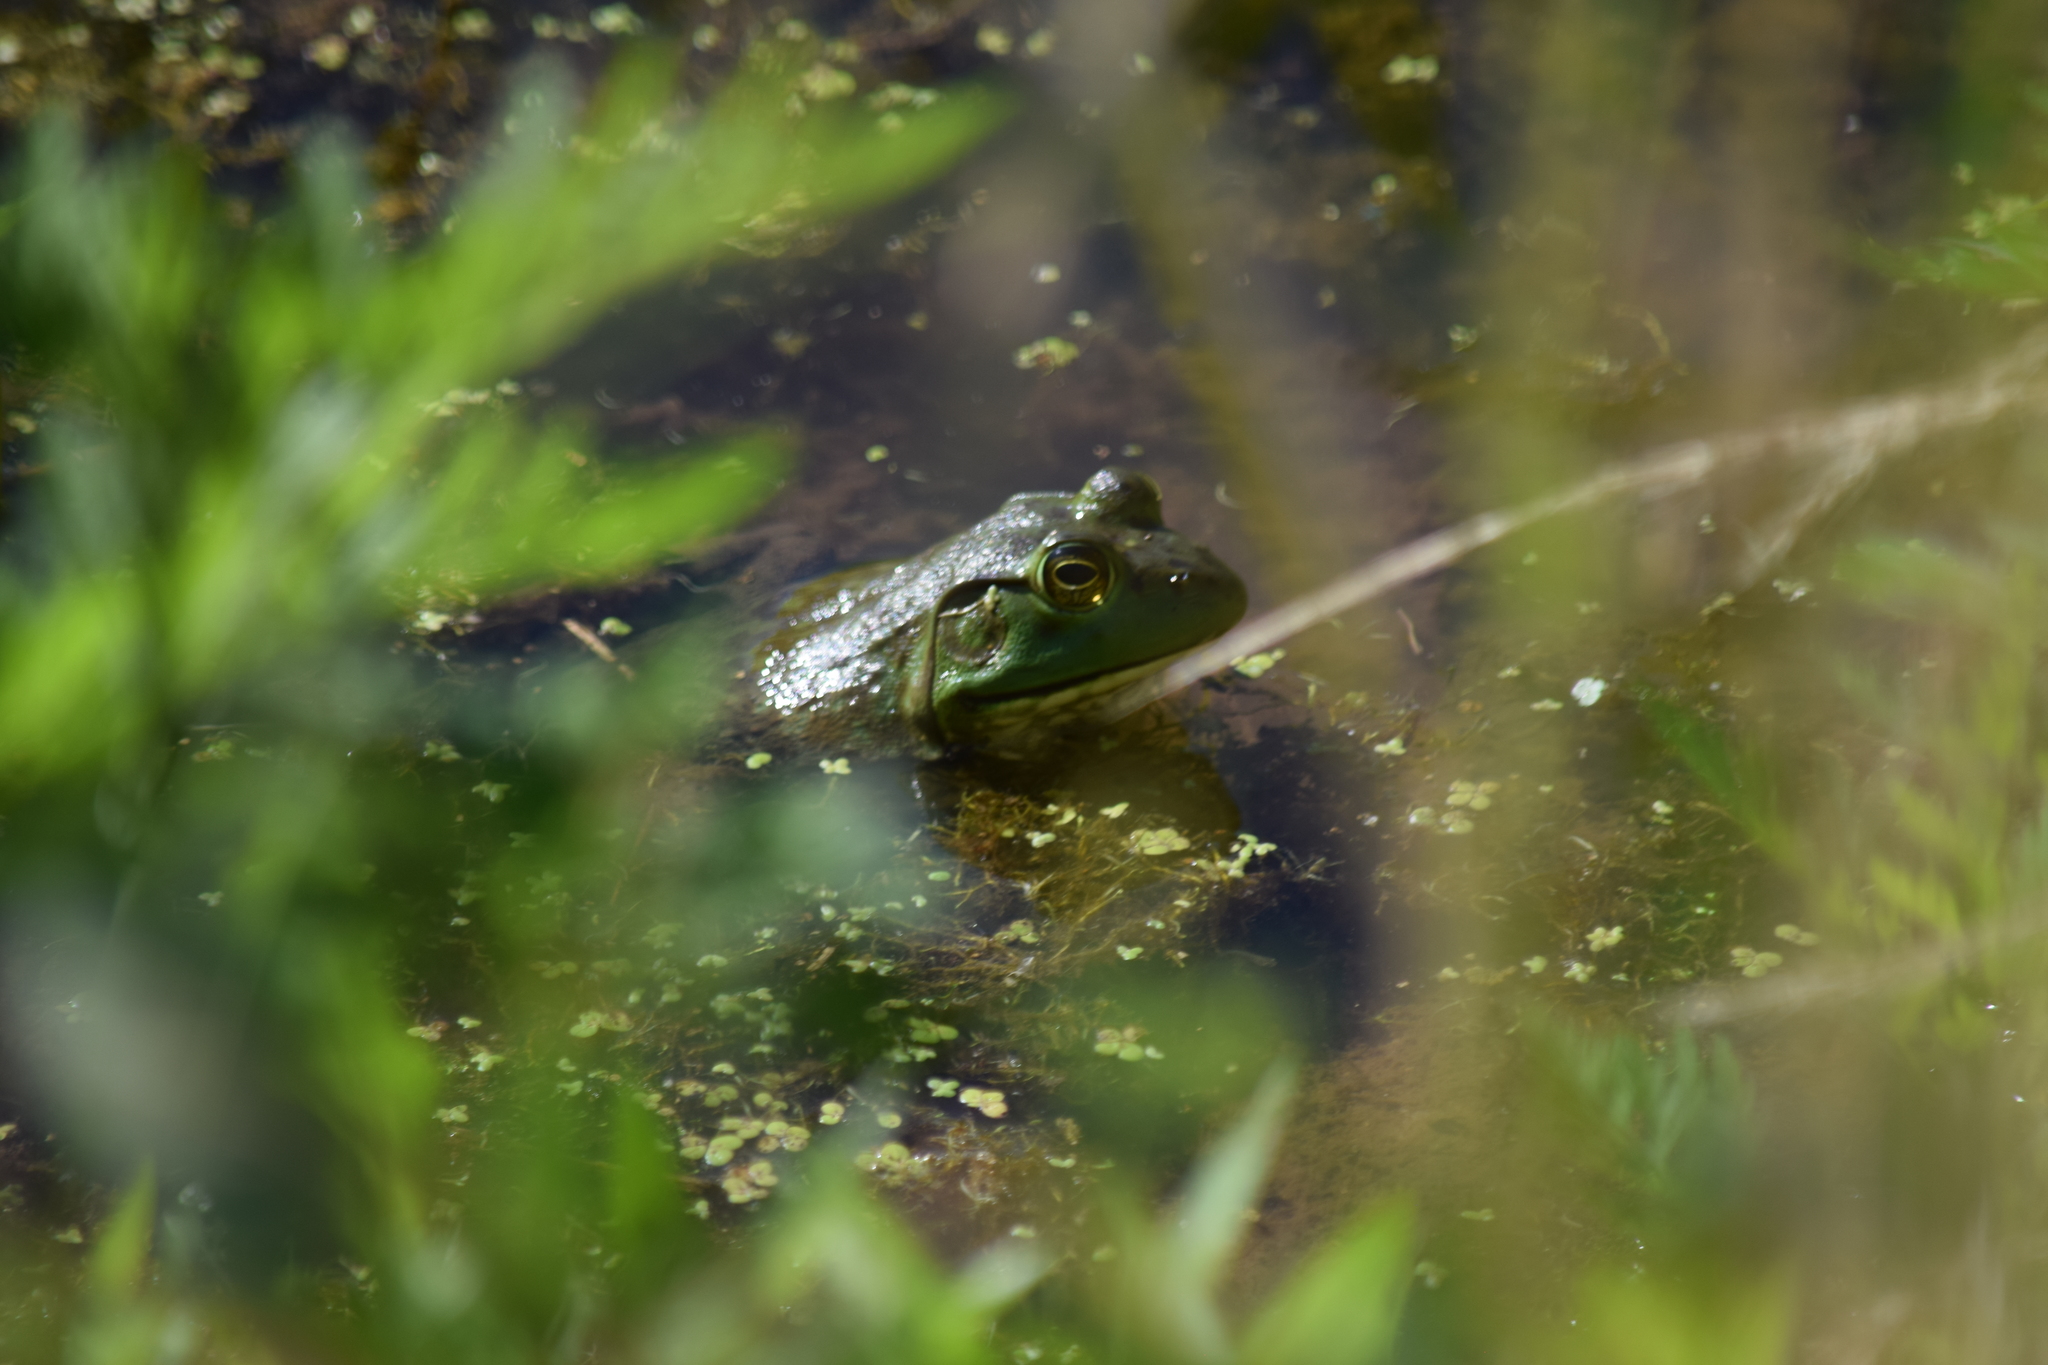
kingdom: Animalia
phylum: Chordata
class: Amphibia
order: Anura
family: Ranidae
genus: Lithobates
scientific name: Lithobates catesbeianus
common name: American bullfrog
